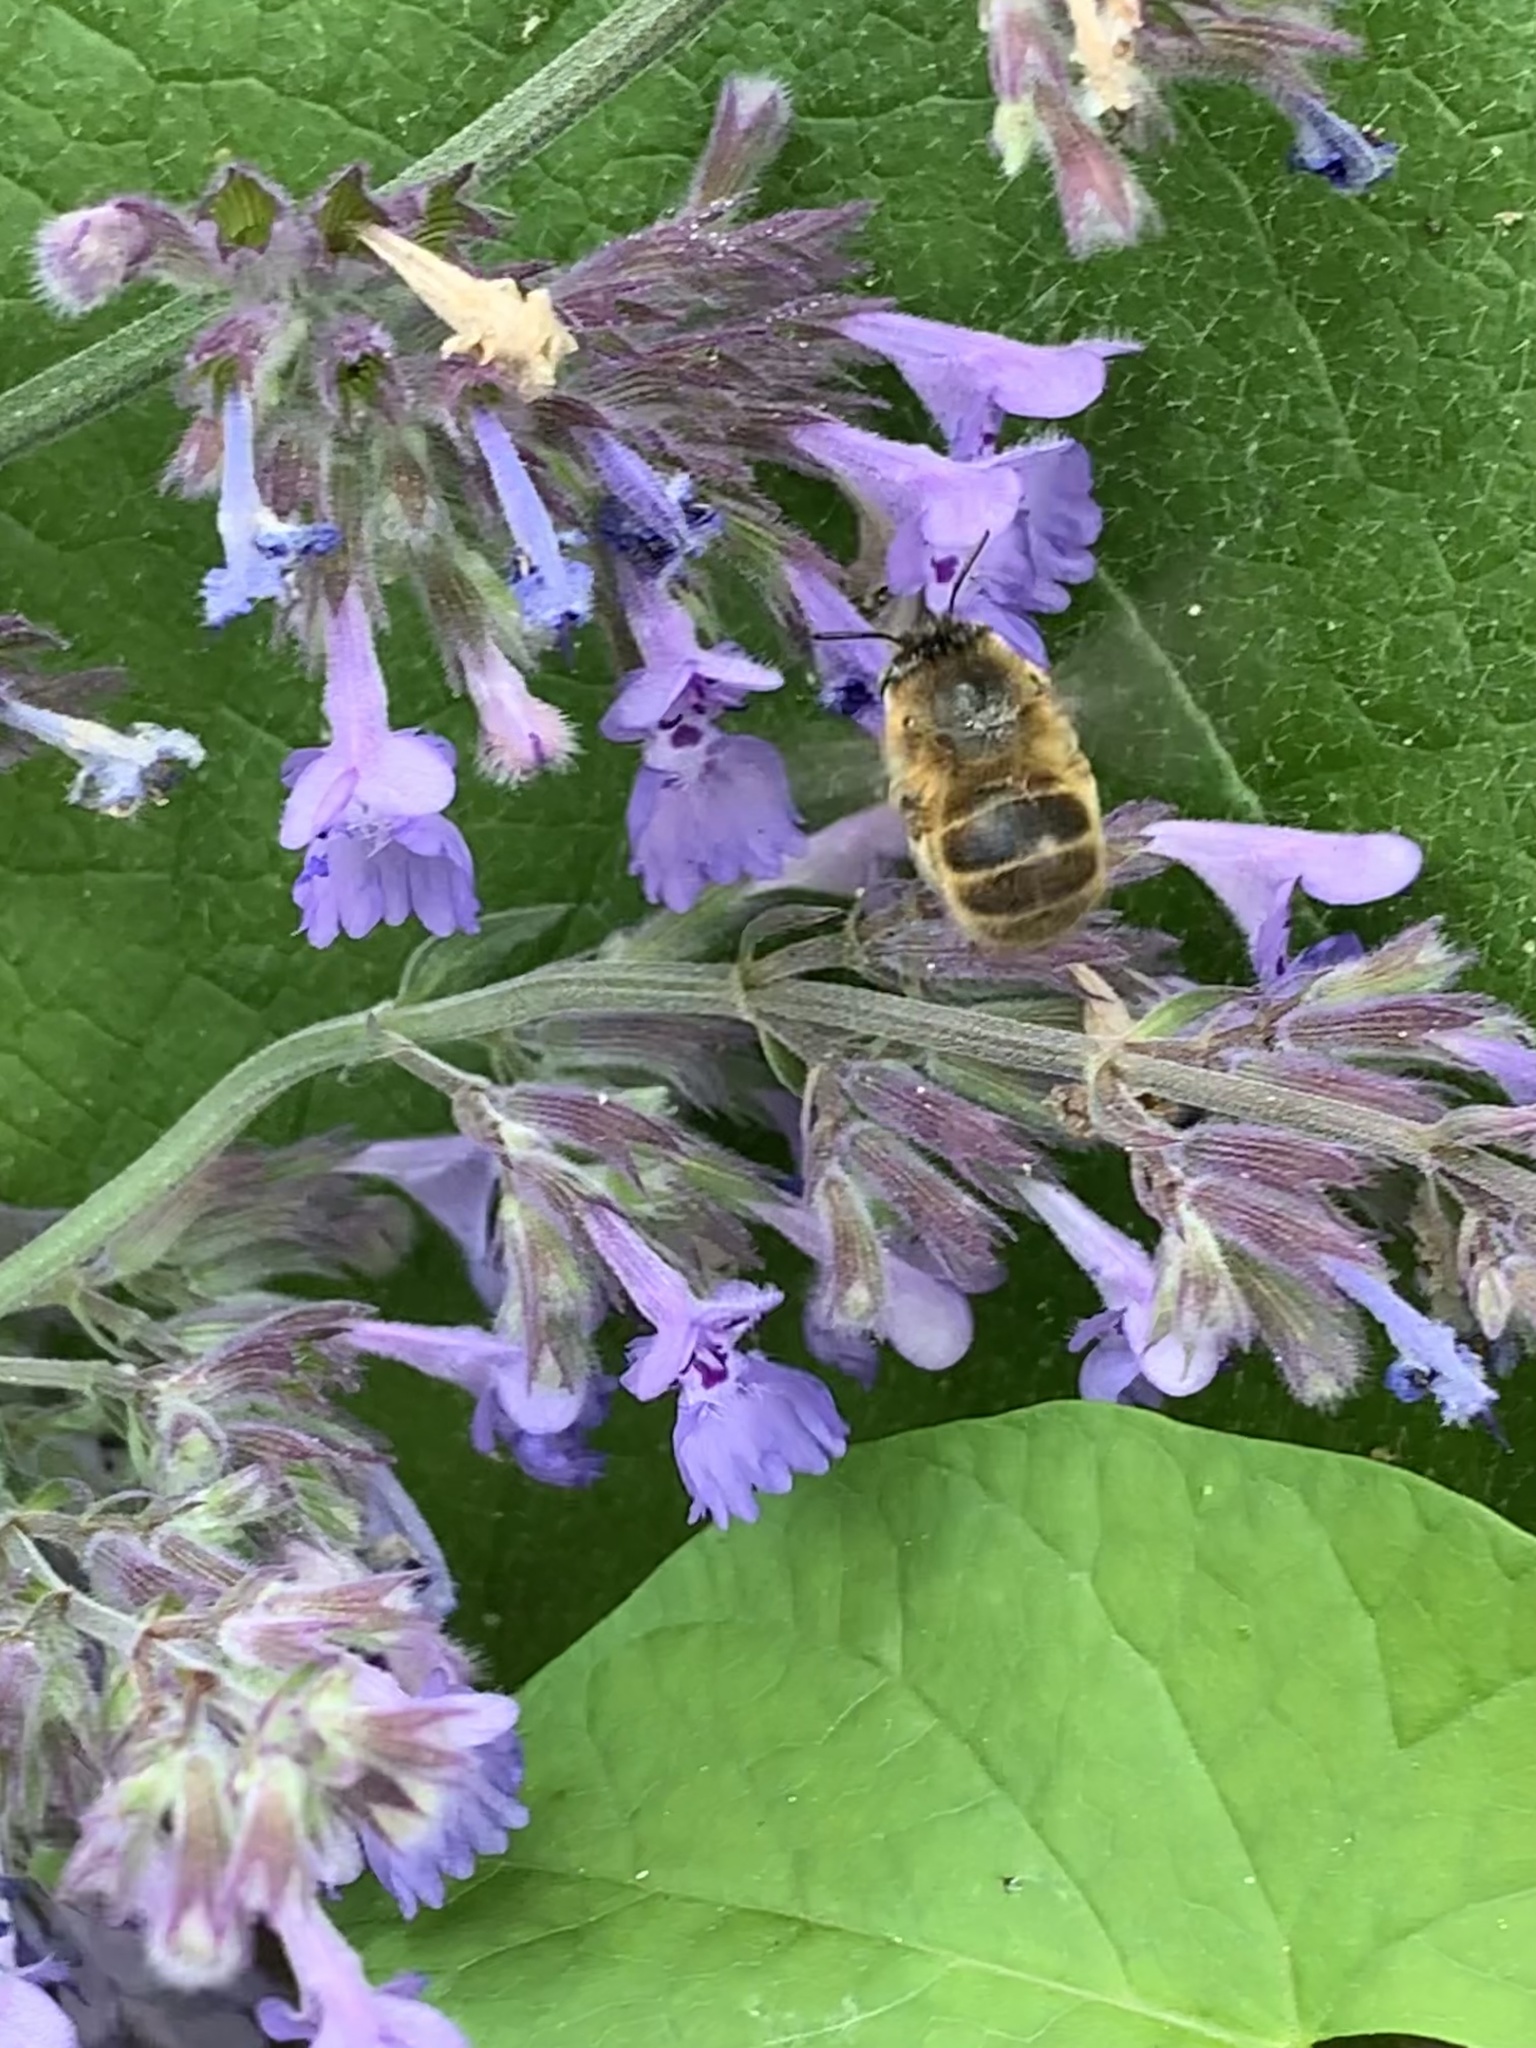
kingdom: Animalia
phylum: Arthropoda
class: Insecta
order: Hymenoptera
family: Apidae
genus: Anthophora
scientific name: Anthophora quadrimaculata
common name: Four-banded flower bee
